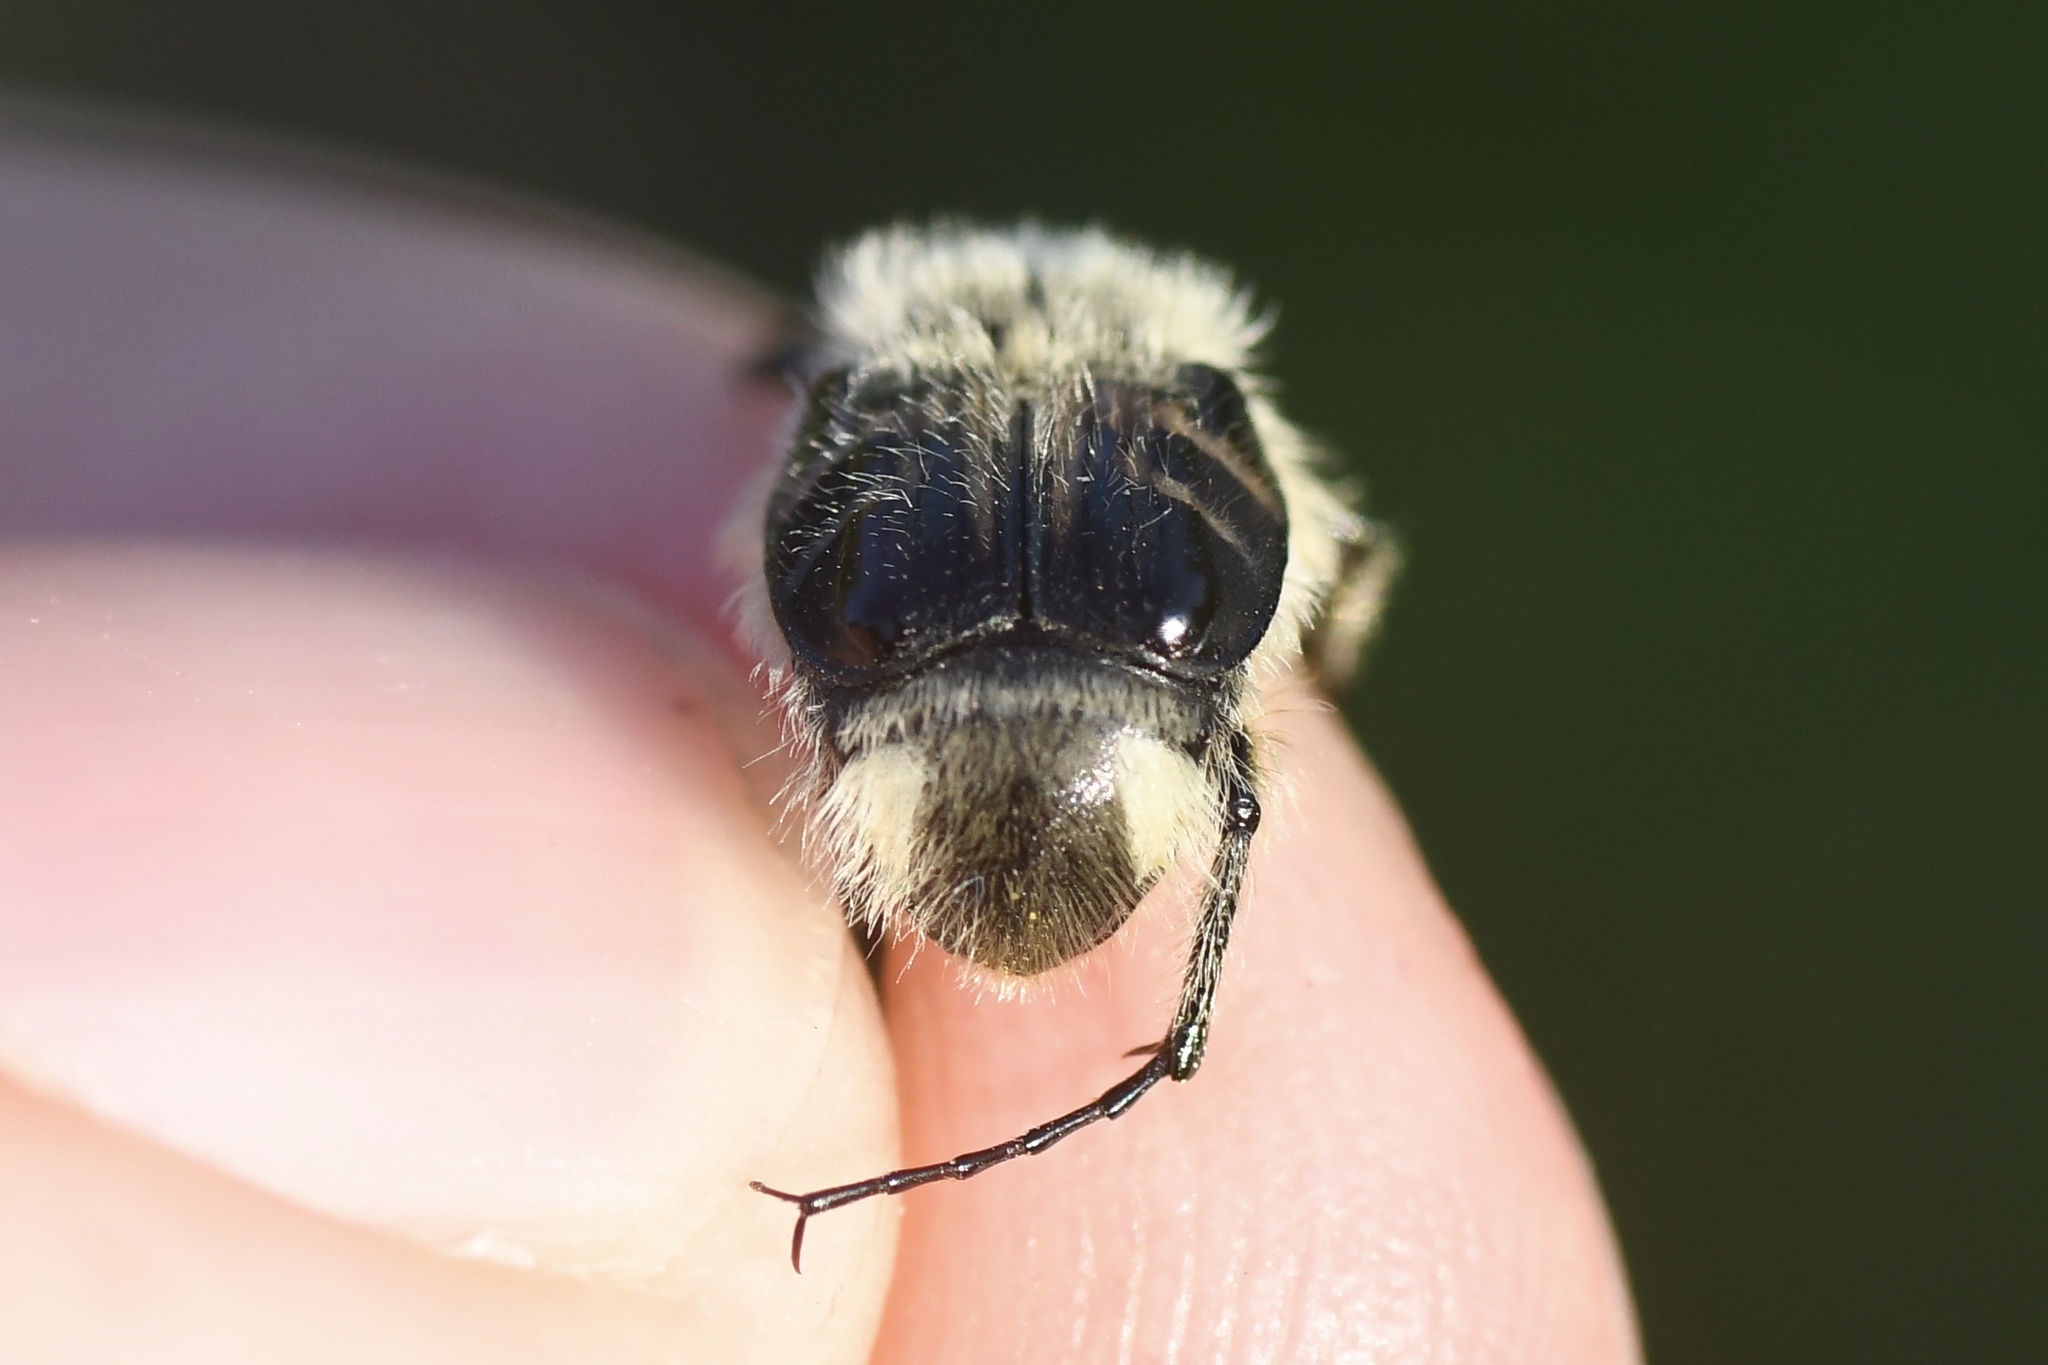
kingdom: Animalia
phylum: Arthropoda
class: Insecta
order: Coleoptera
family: Scarabaeidae
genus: Trichiotinus
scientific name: Trichiotinus assimilis
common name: Bee-mimic beetle
